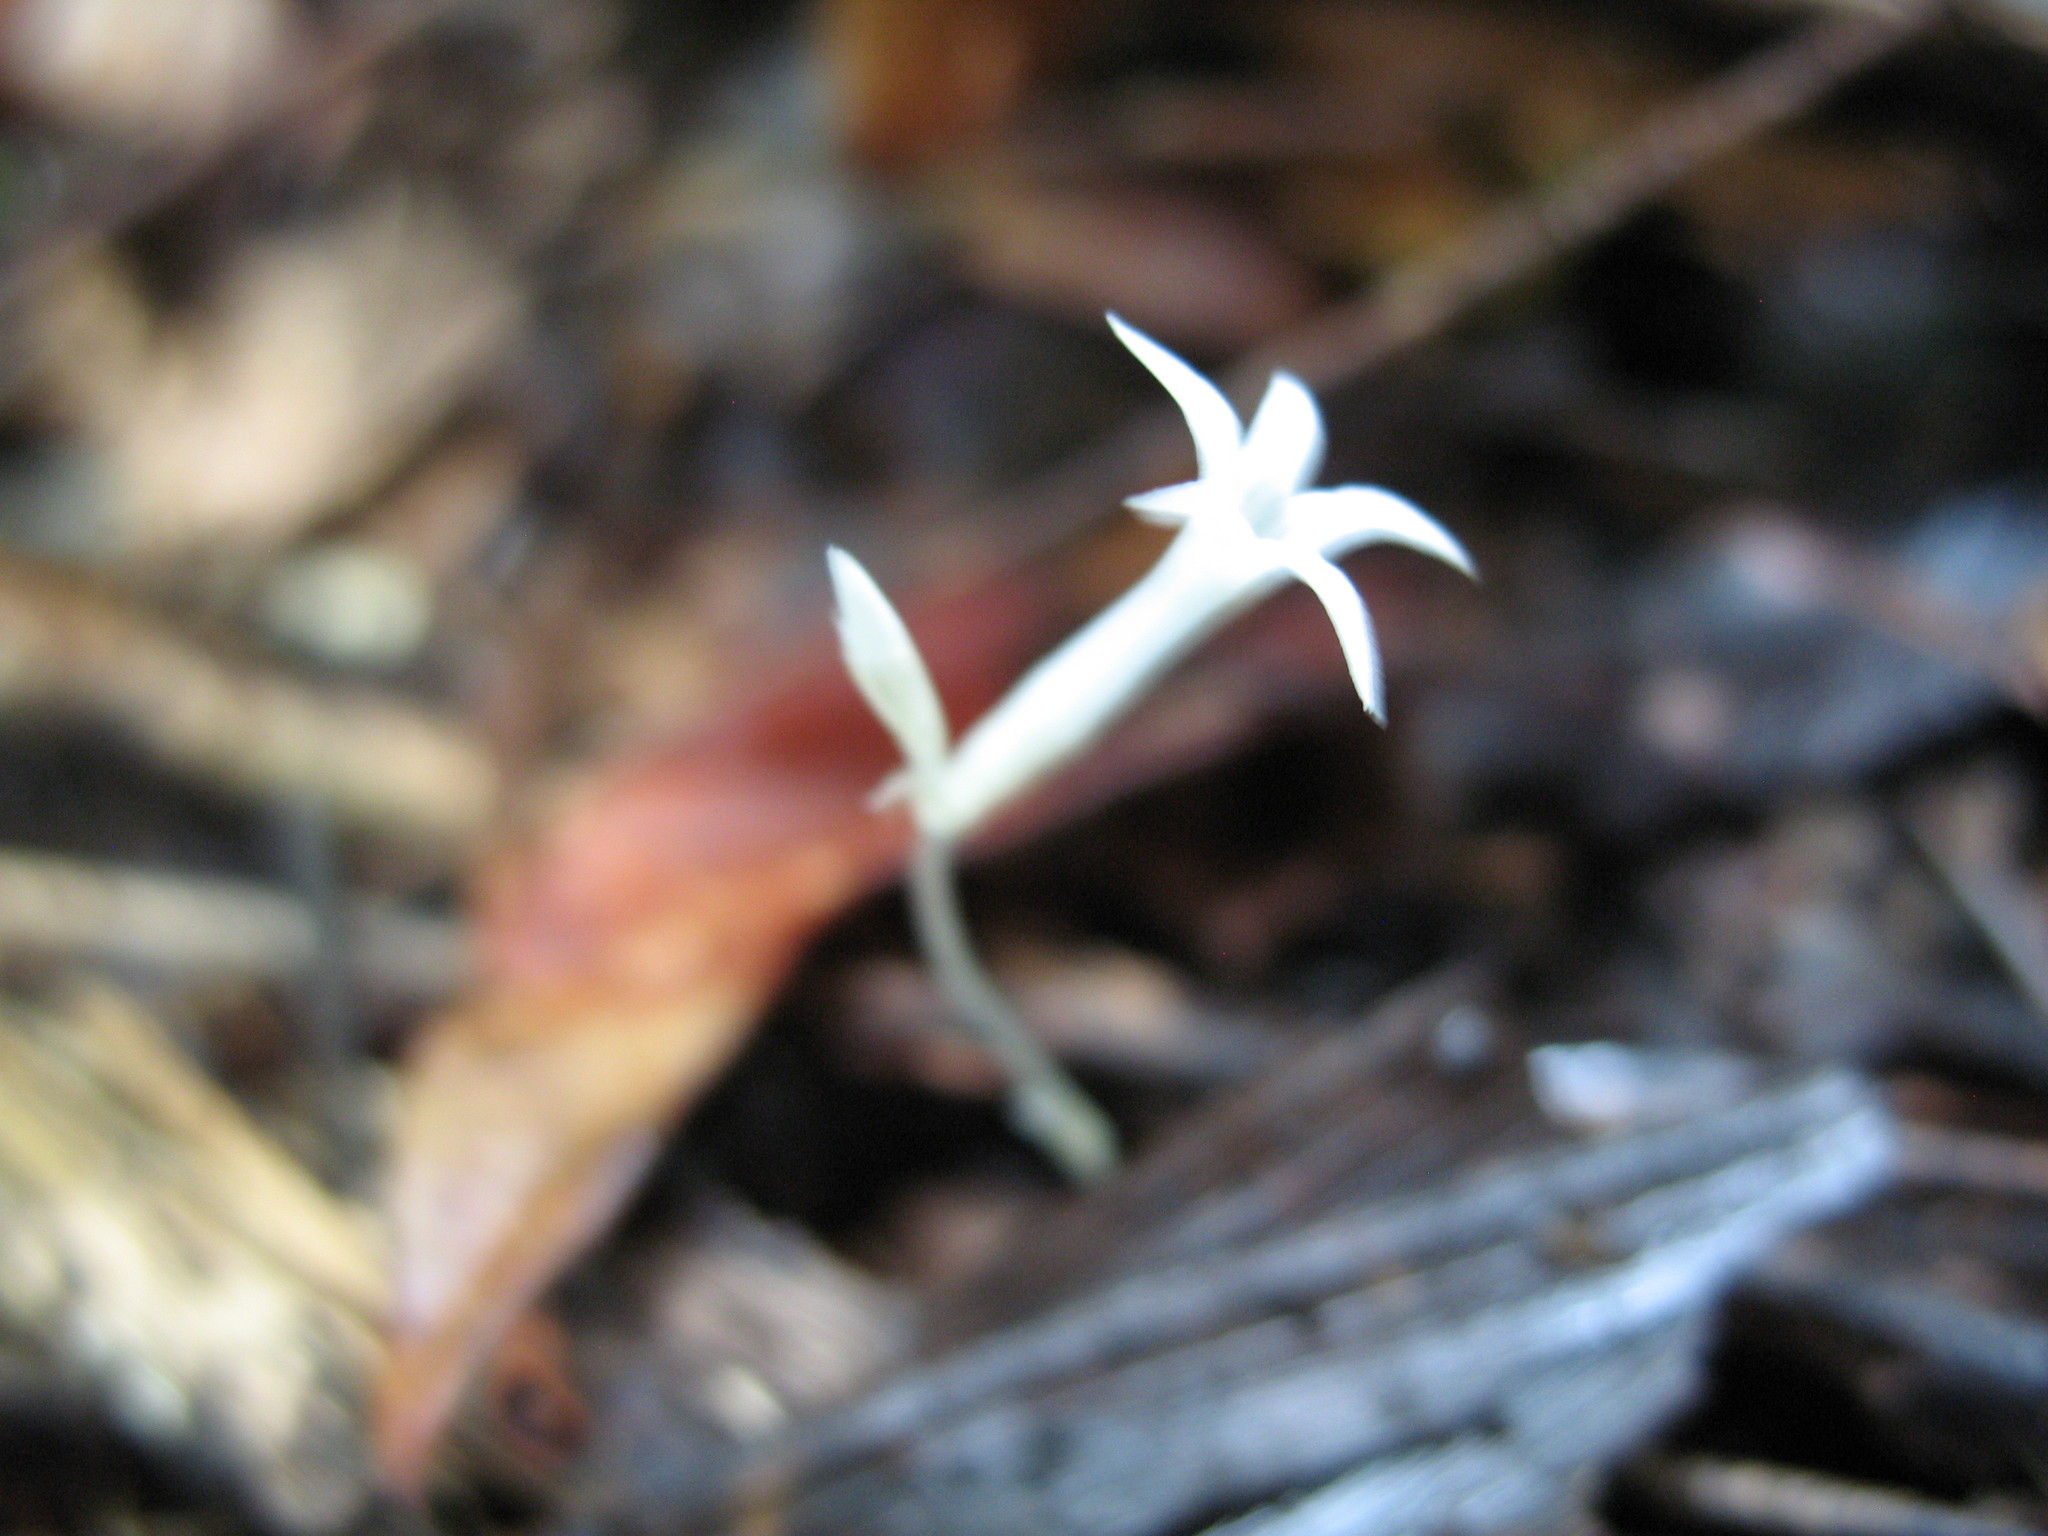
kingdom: Plantae
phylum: Tracheophyta
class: Magnoliopsida
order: Gentianales
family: Gentianaceae
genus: Voyria
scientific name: Voyria alba
